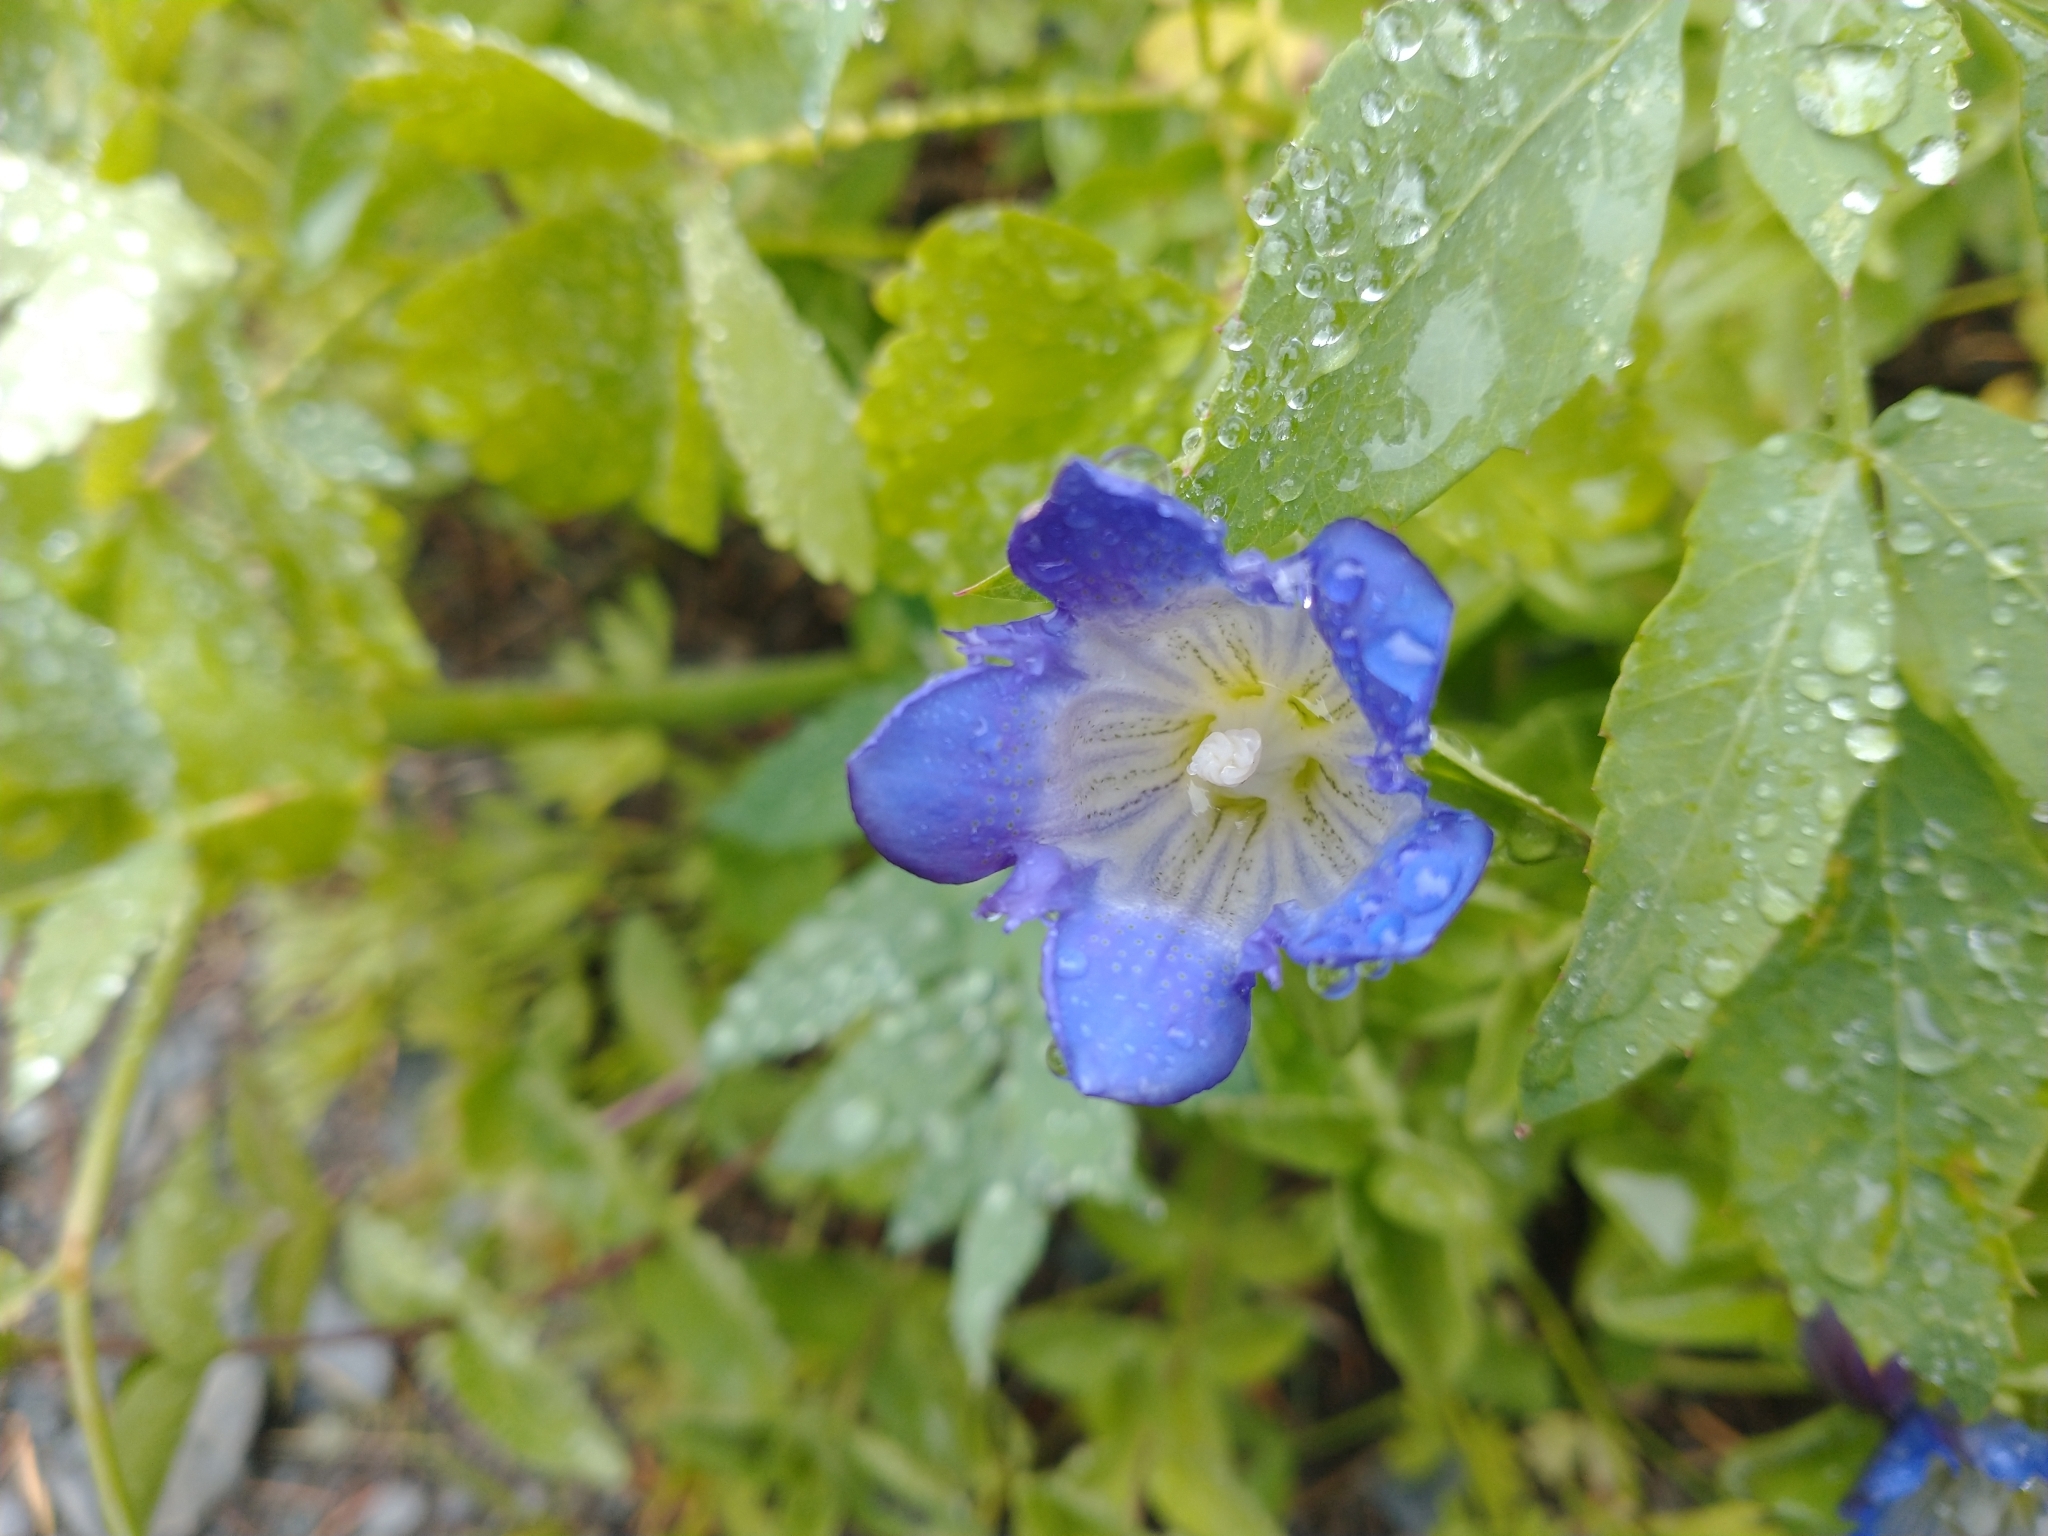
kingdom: Plantae
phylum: Tracheophyta
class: Magnoliopsida
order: Gentianales
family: Gentianaceae
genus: Gentiana
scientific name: Gentiana calycosa
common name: Rainier pleated gentian
